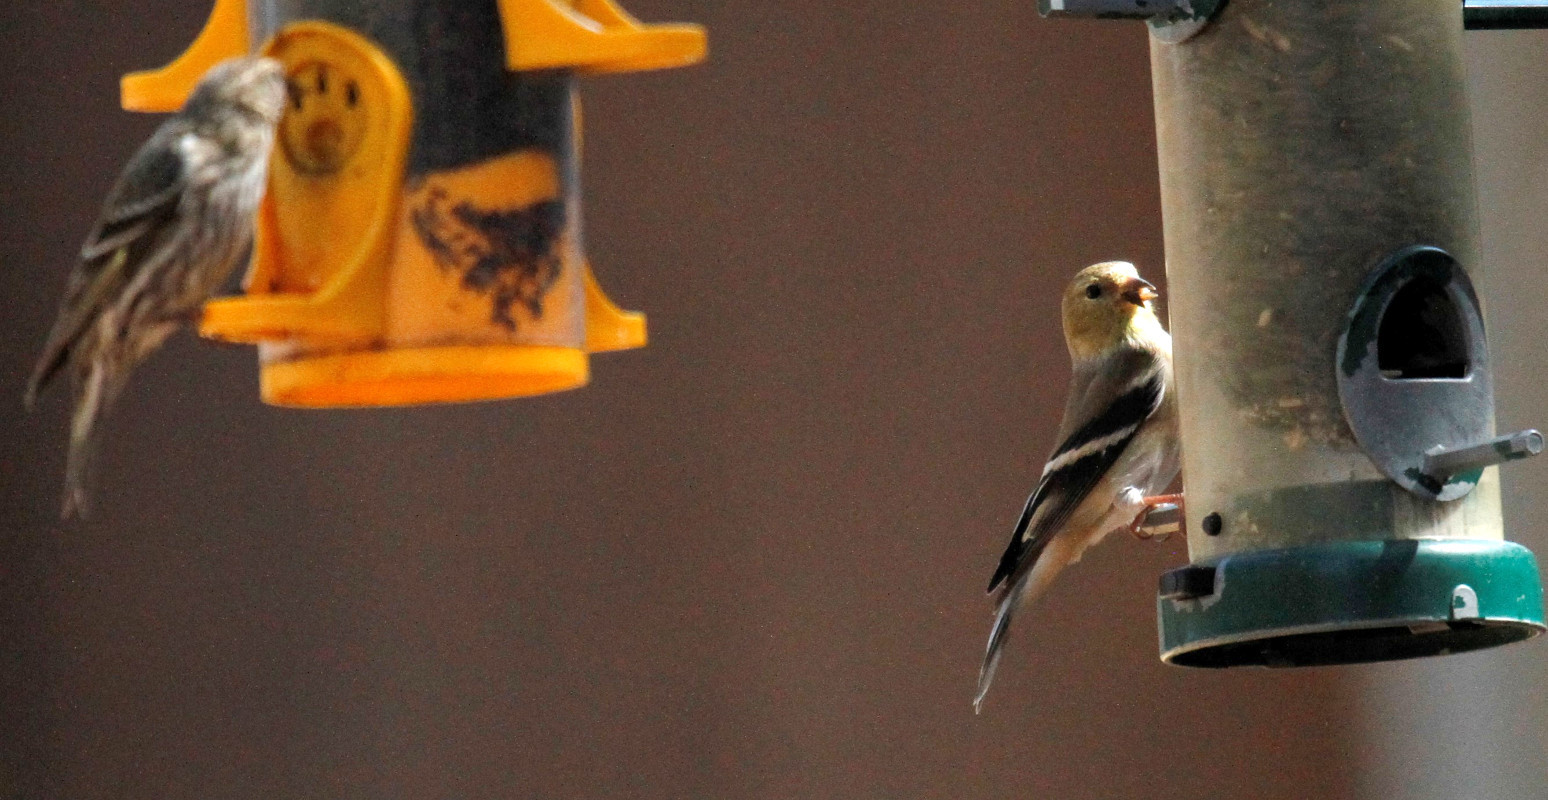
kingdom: Animalia
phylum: Chordata
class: Aves
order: Passeriformes
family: Fringillidae
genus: Spinus
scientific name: Spinus tristis
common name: American goldfinch
